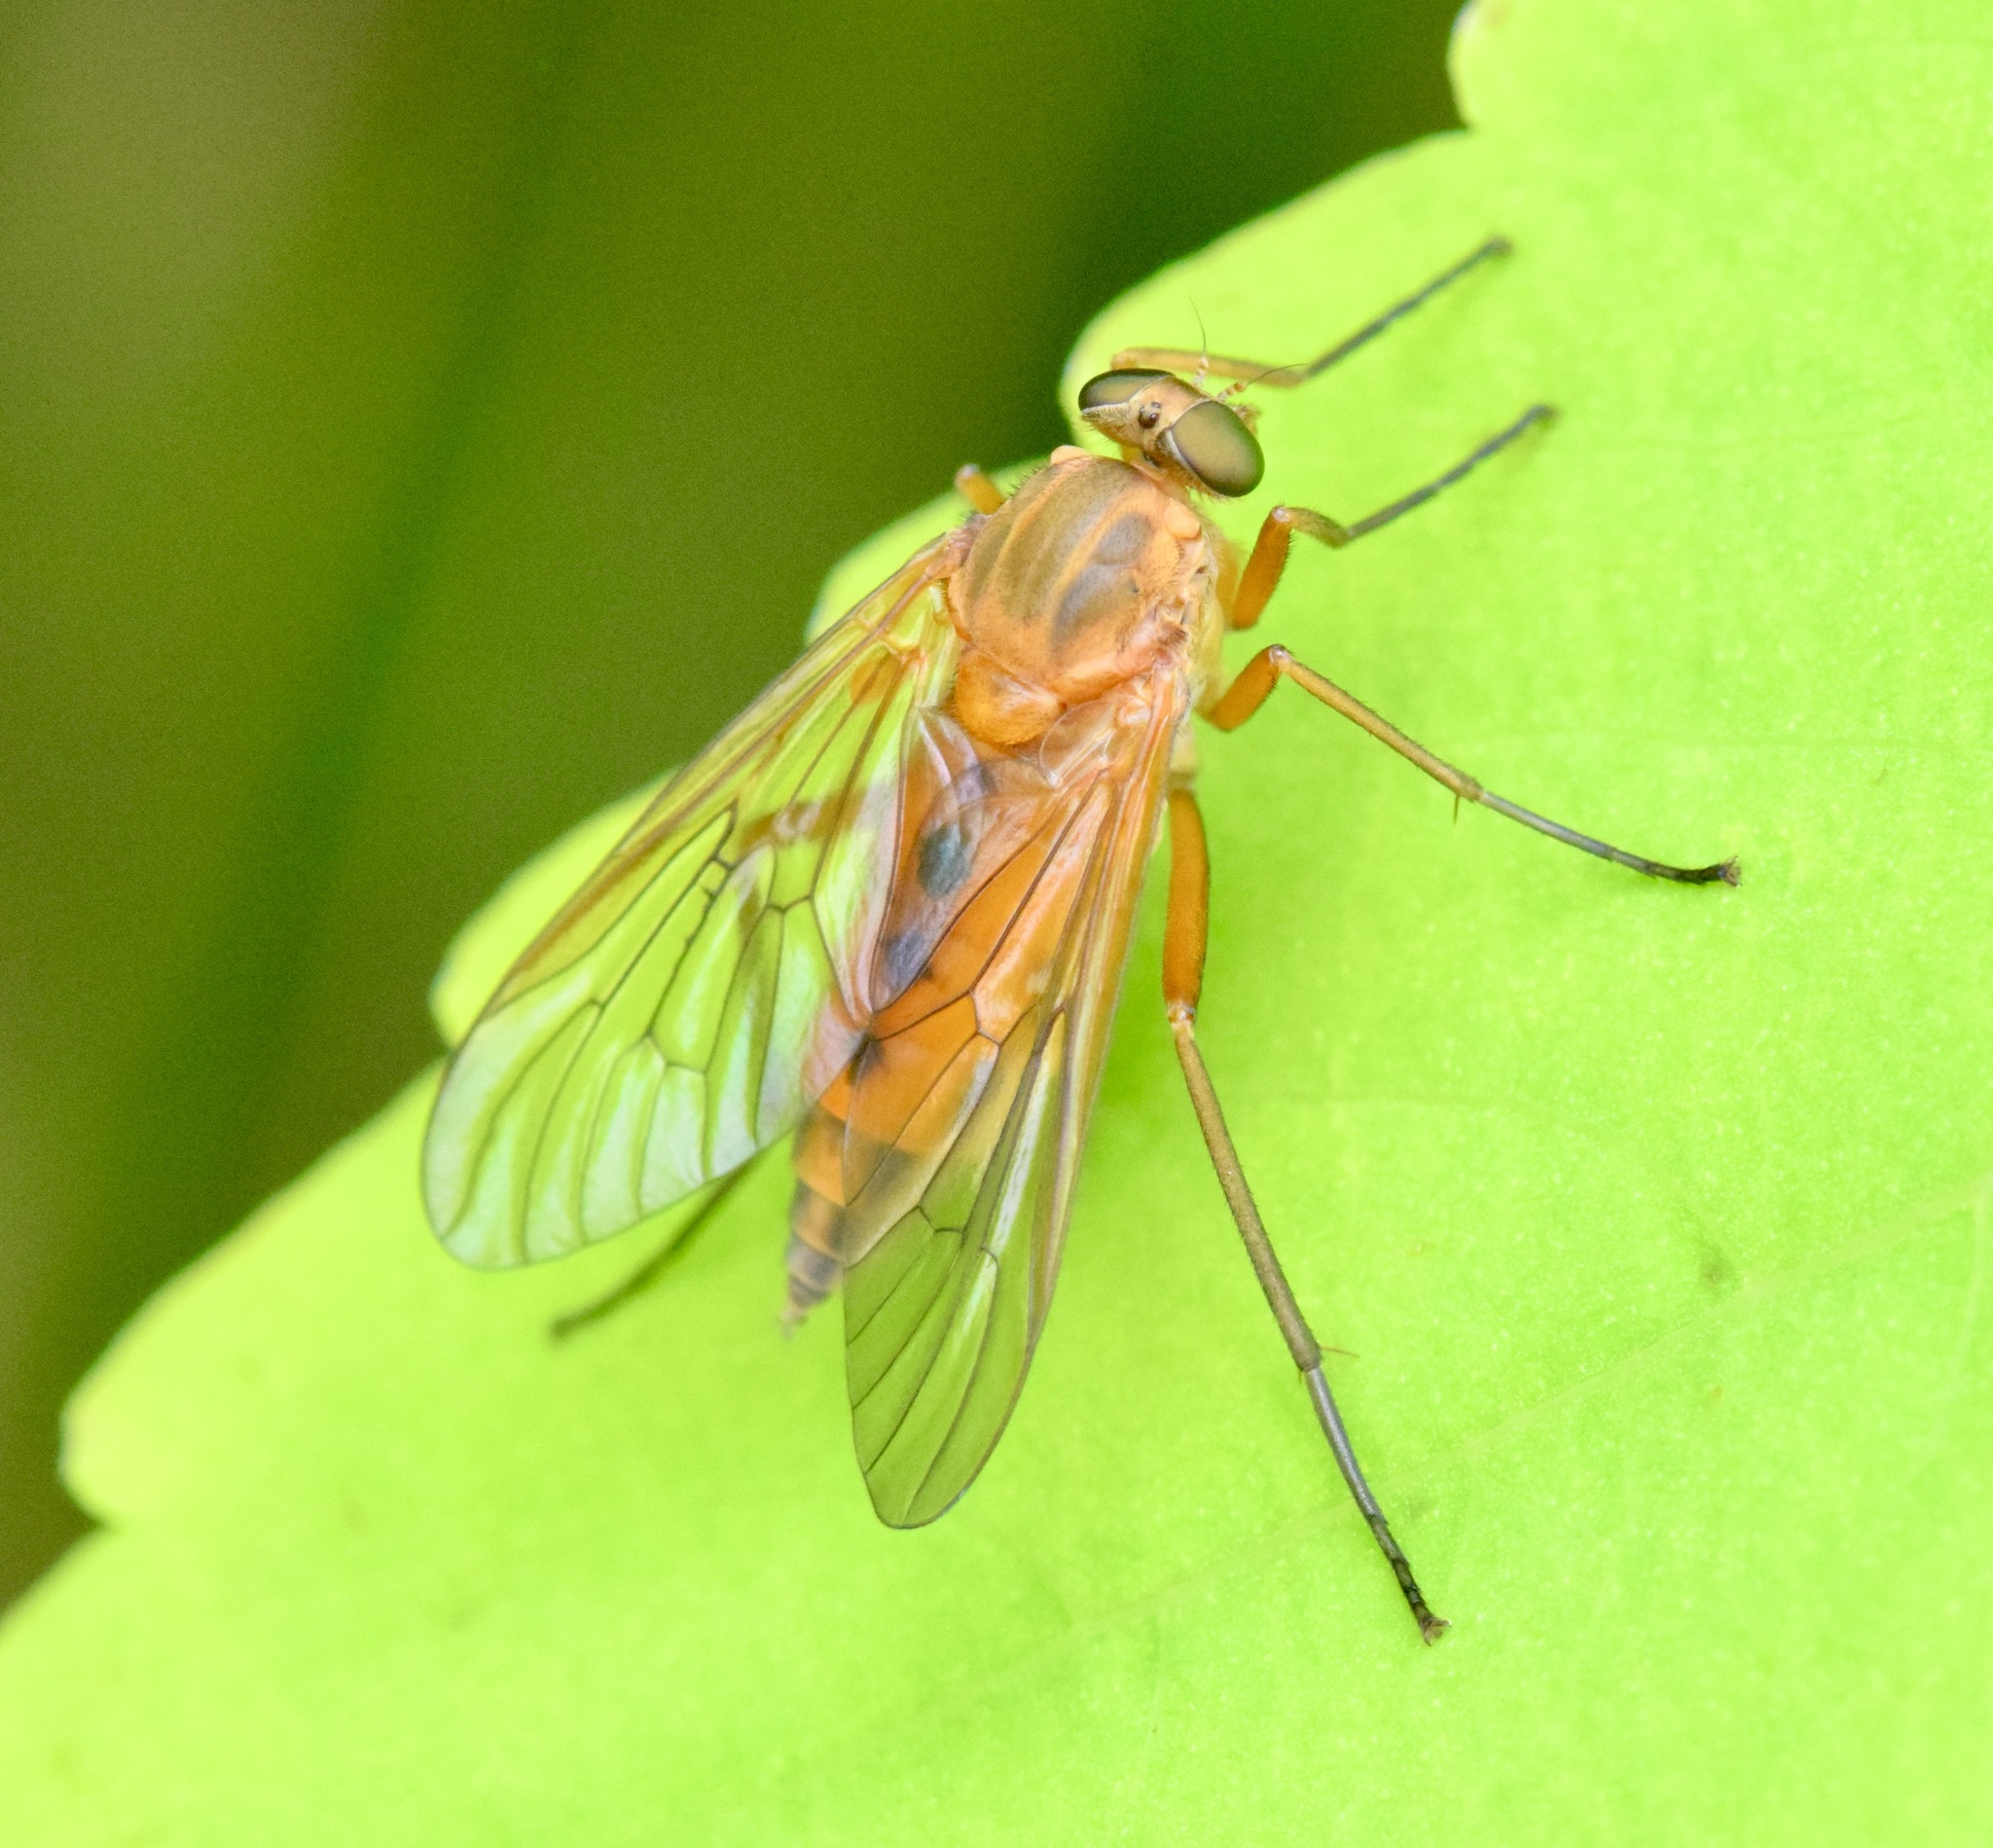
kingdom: Animalia
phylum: Arthropoda
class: Insecta
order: Diptera
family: Rhagionidae
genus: Rhagio
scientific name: Rhagio tringaria
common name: Marsh snipefly
